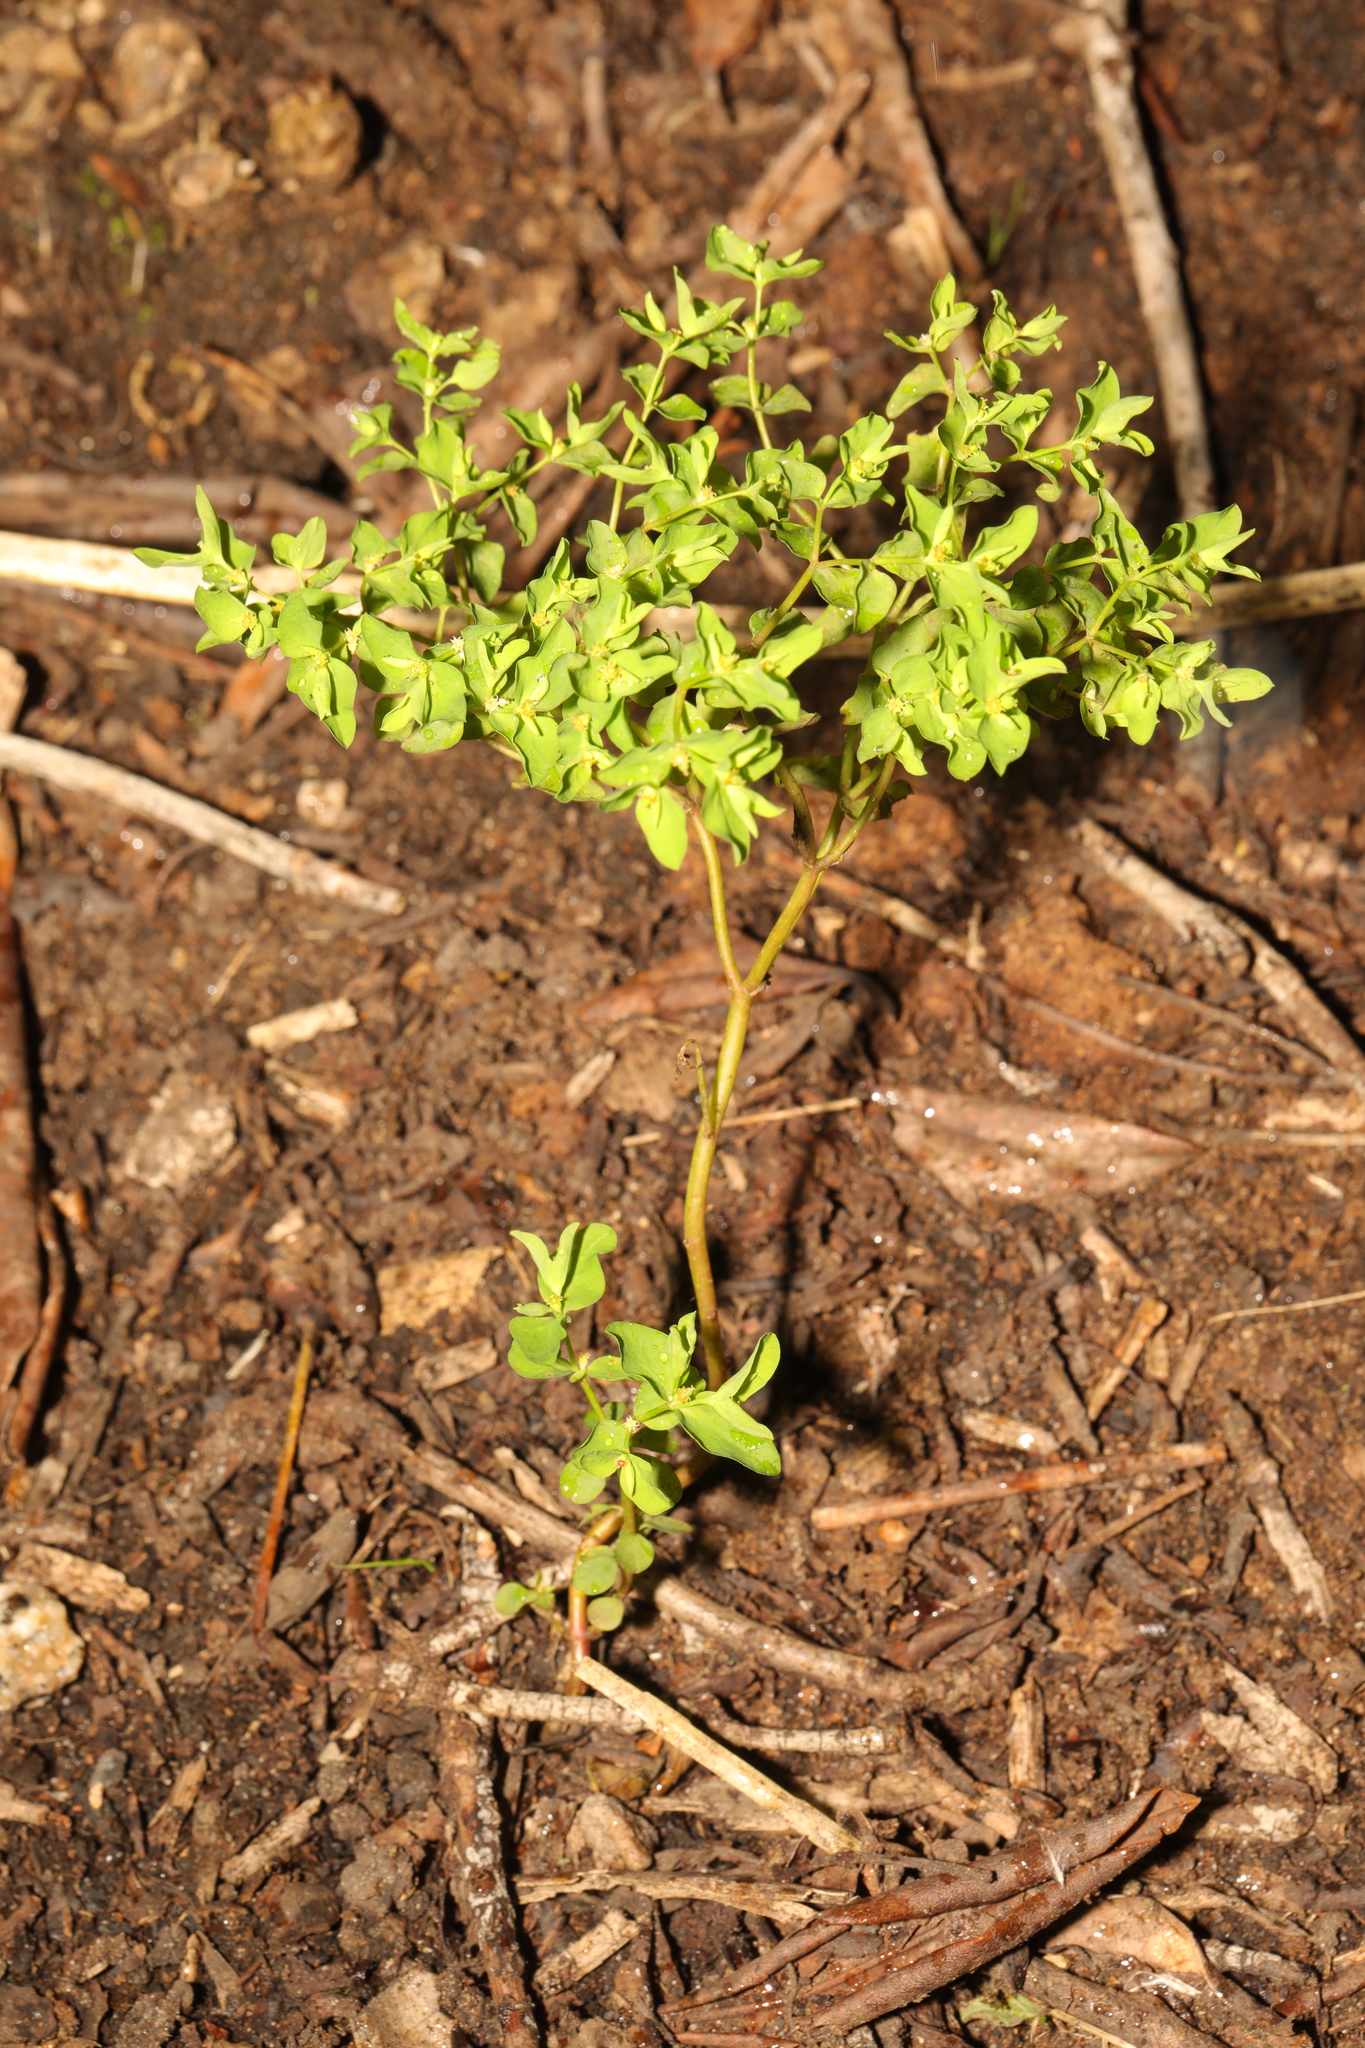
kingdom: Plantae
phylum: Tracheophyta
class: Magnoliopsida
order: Malpighiales
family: Euphorbiaceae
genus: Euphorbia
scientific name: Euphorbia peplus
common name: Petty spurge
